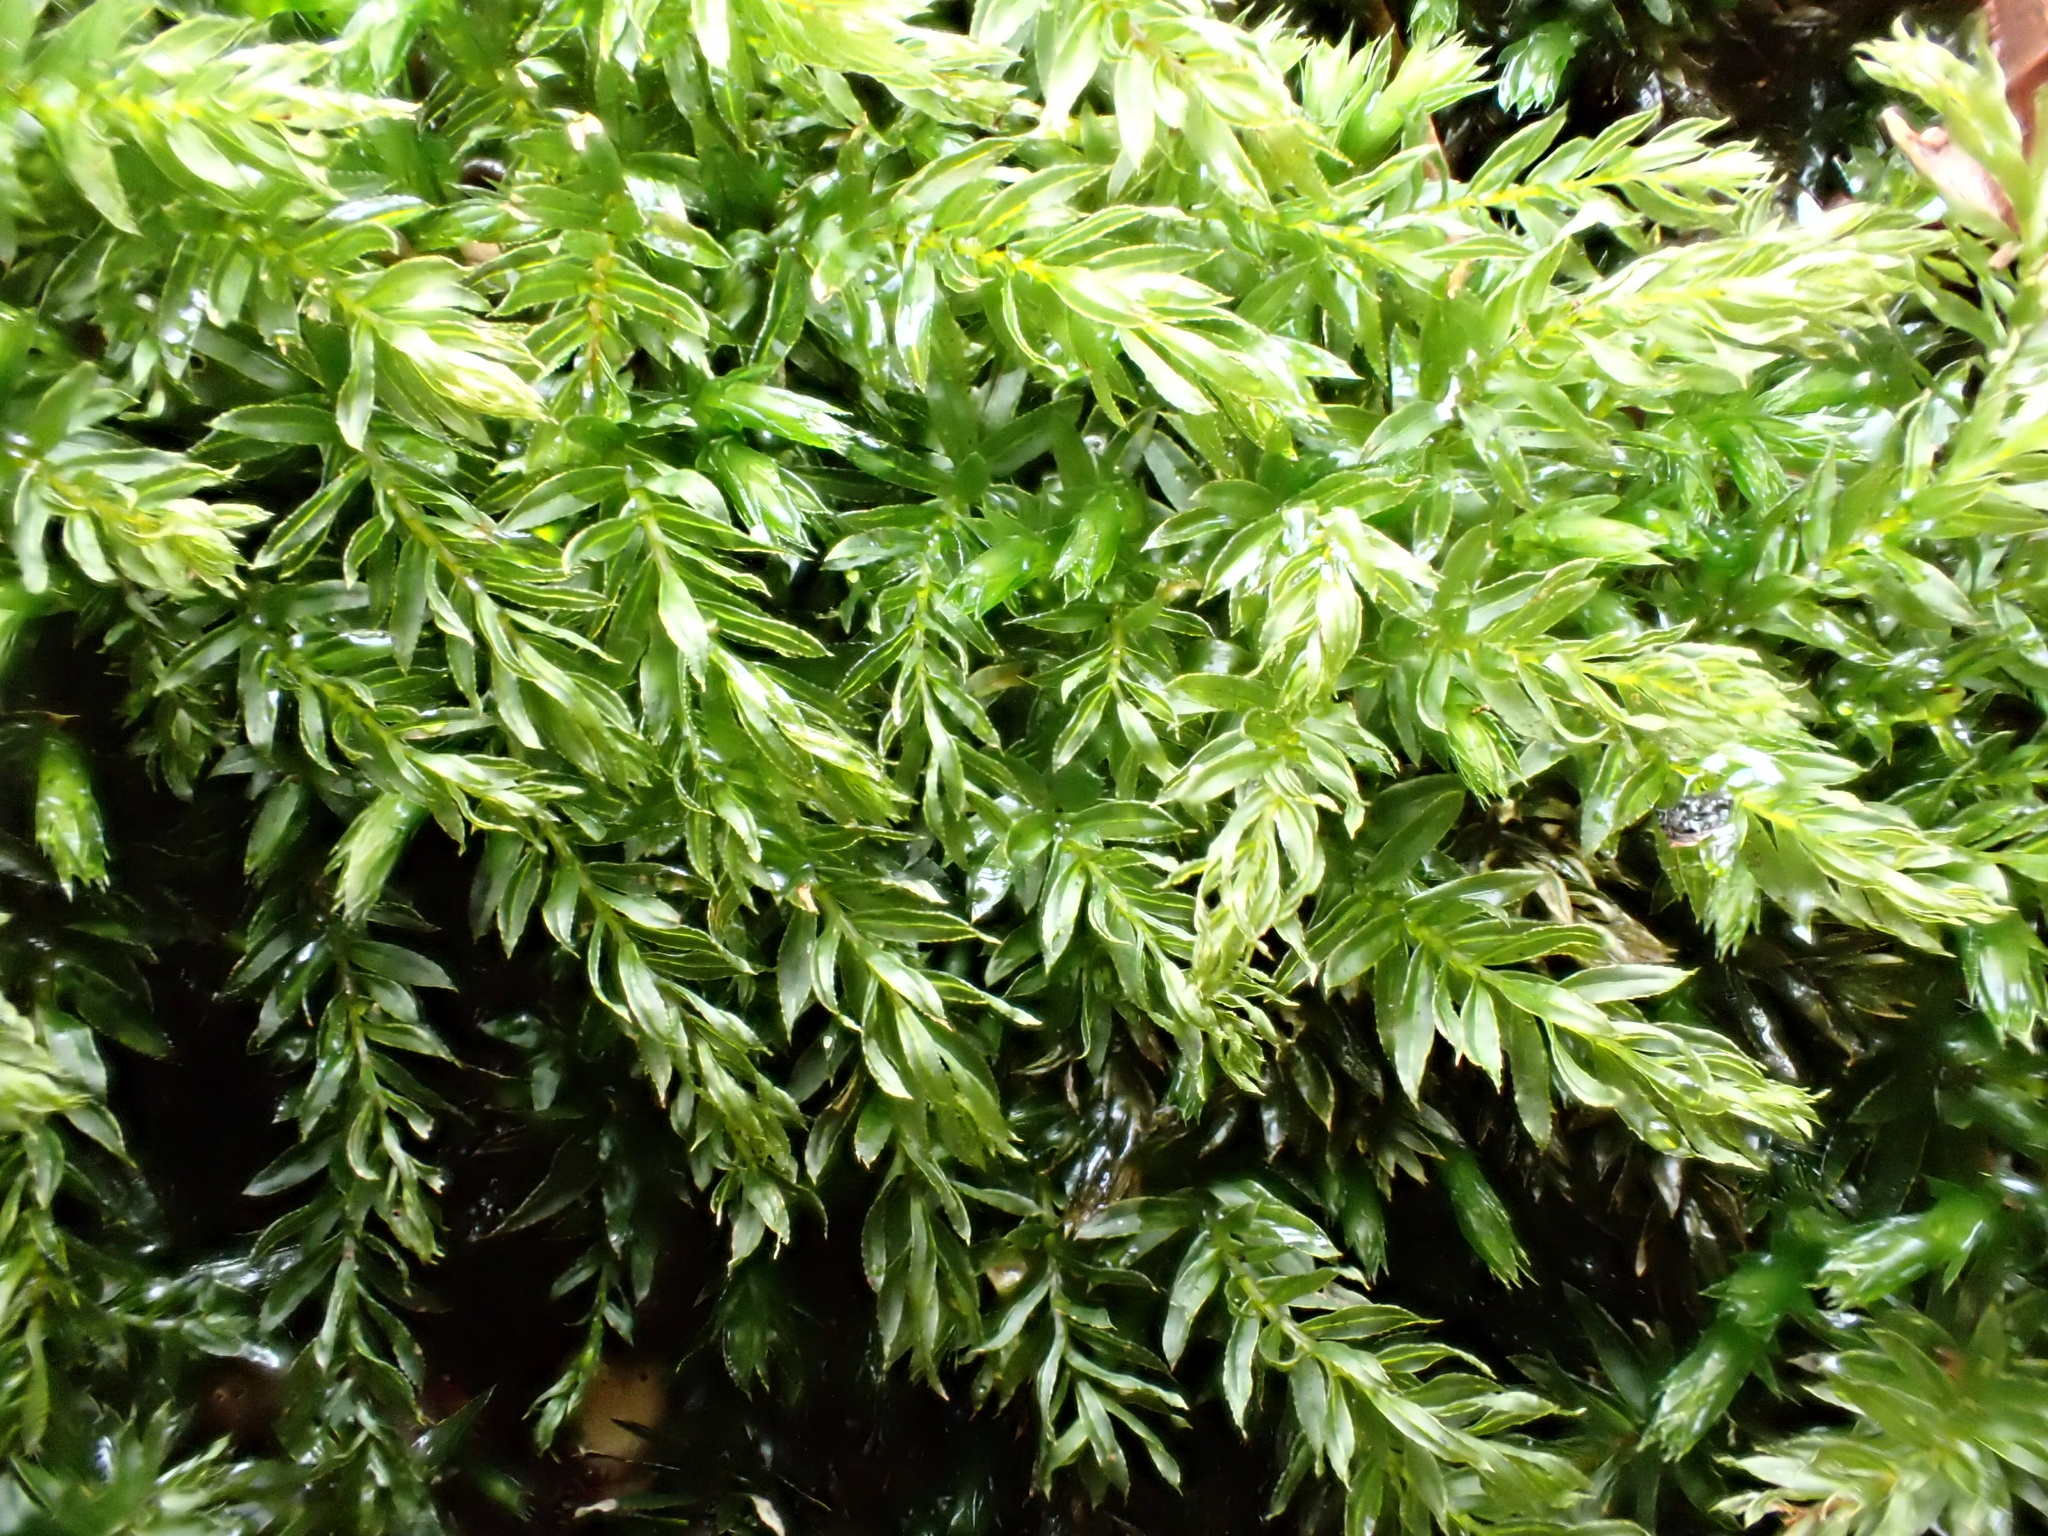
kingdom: Plantae
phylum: Bryophyta
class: Bryopsida
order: Bryales
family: Mniaceae
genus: Mnium
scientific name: Mnium hornum
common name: Swan's-neck leafy moss
